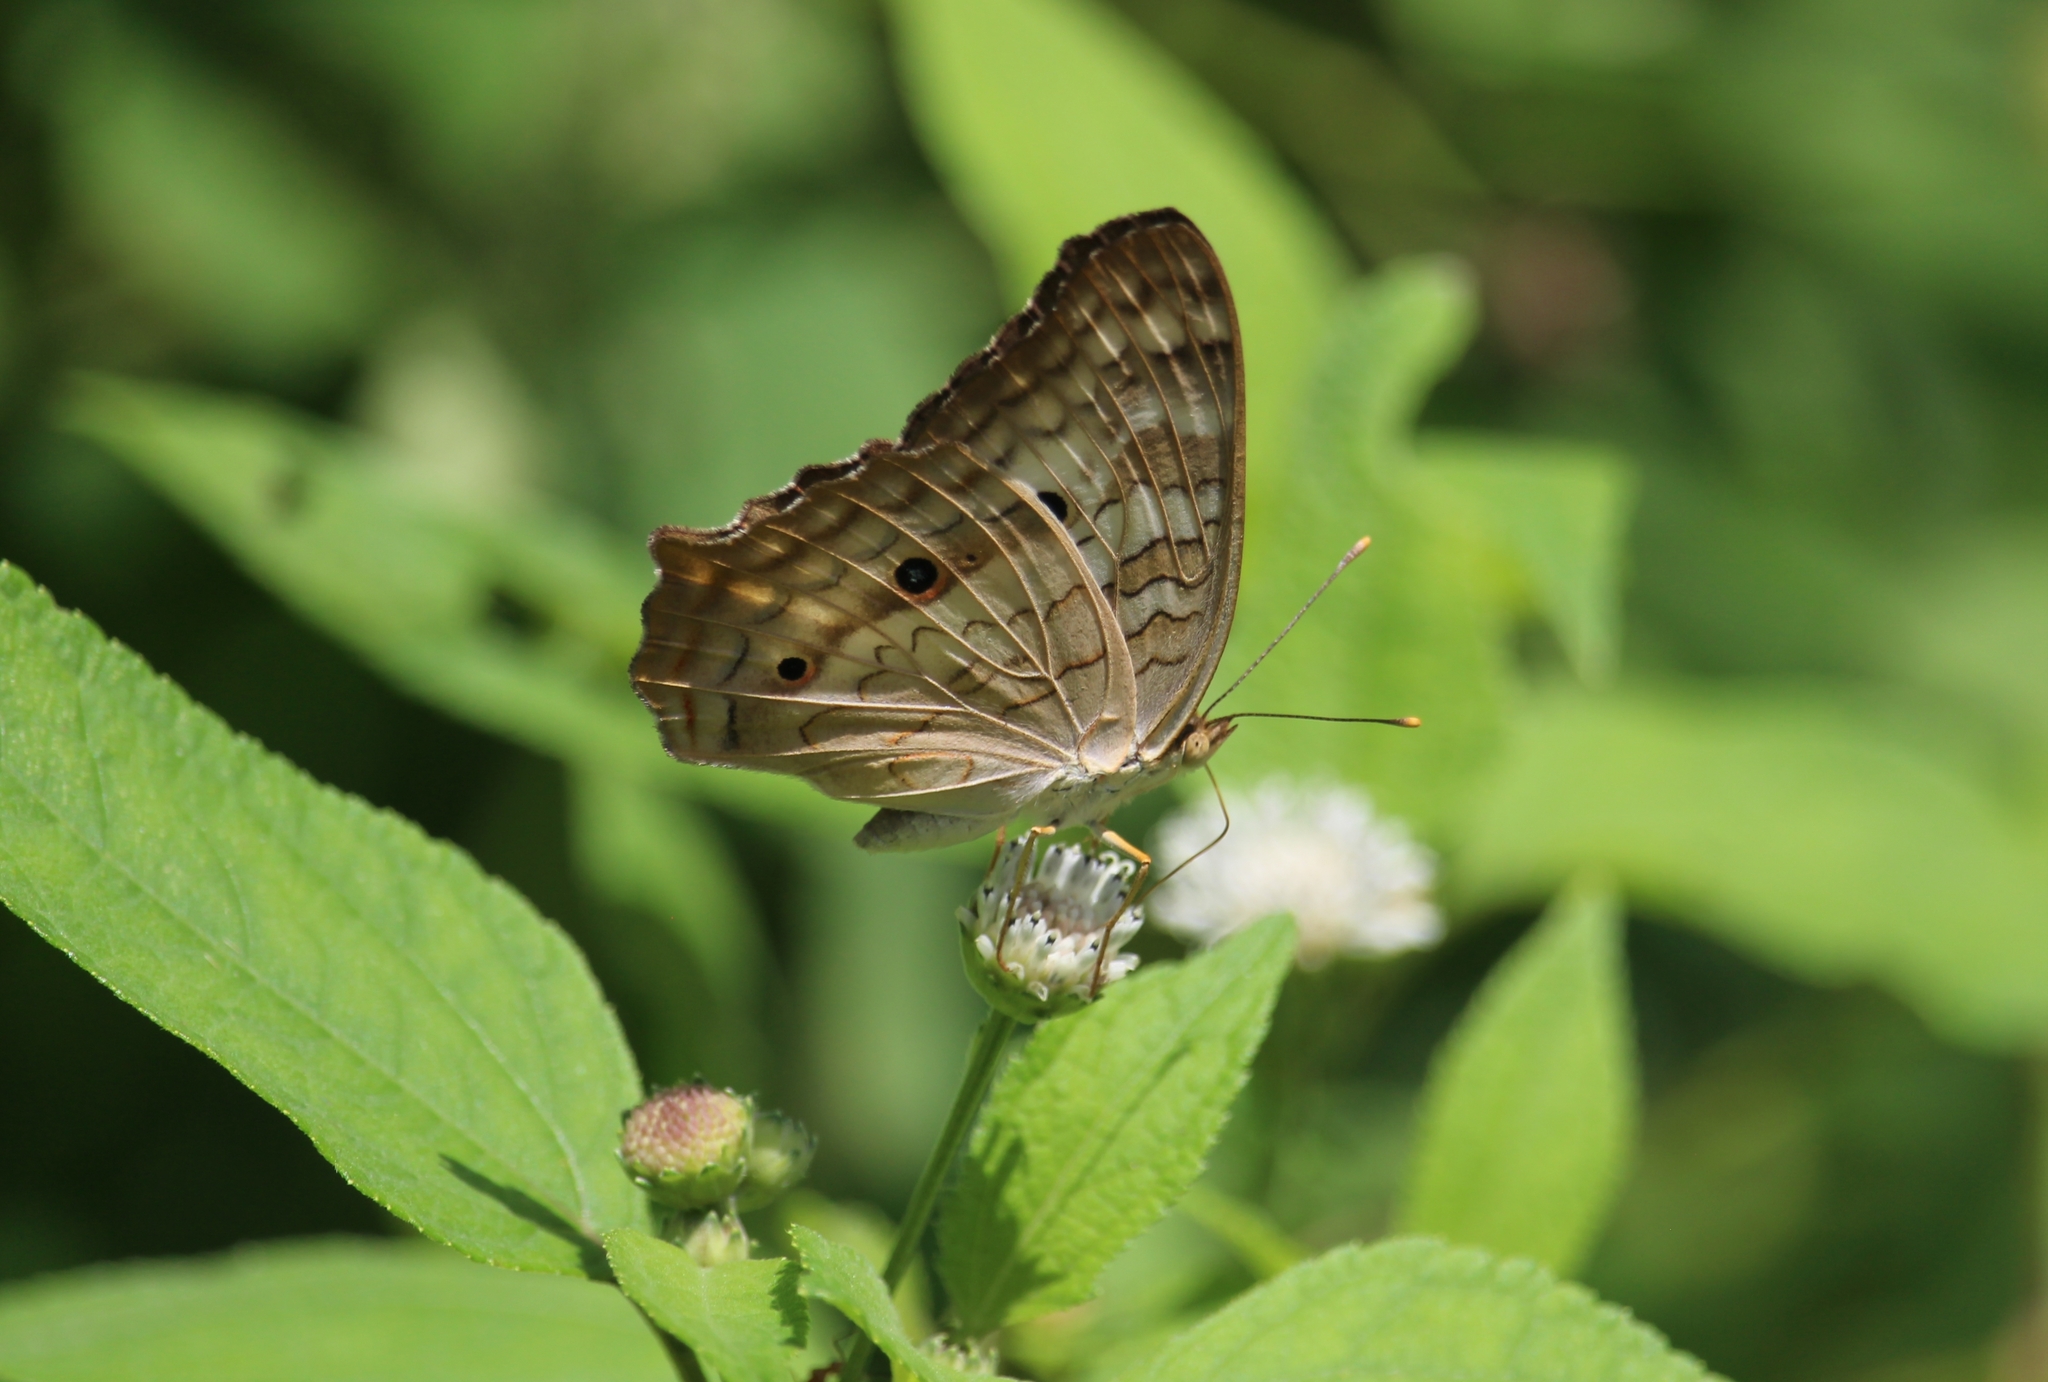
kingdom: Animalia
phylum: Arthropoda
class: Insecta
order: Lepidoptera
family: Nymphalidae
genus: Anartia
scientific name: Anartia jatrophae
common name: White peacock
